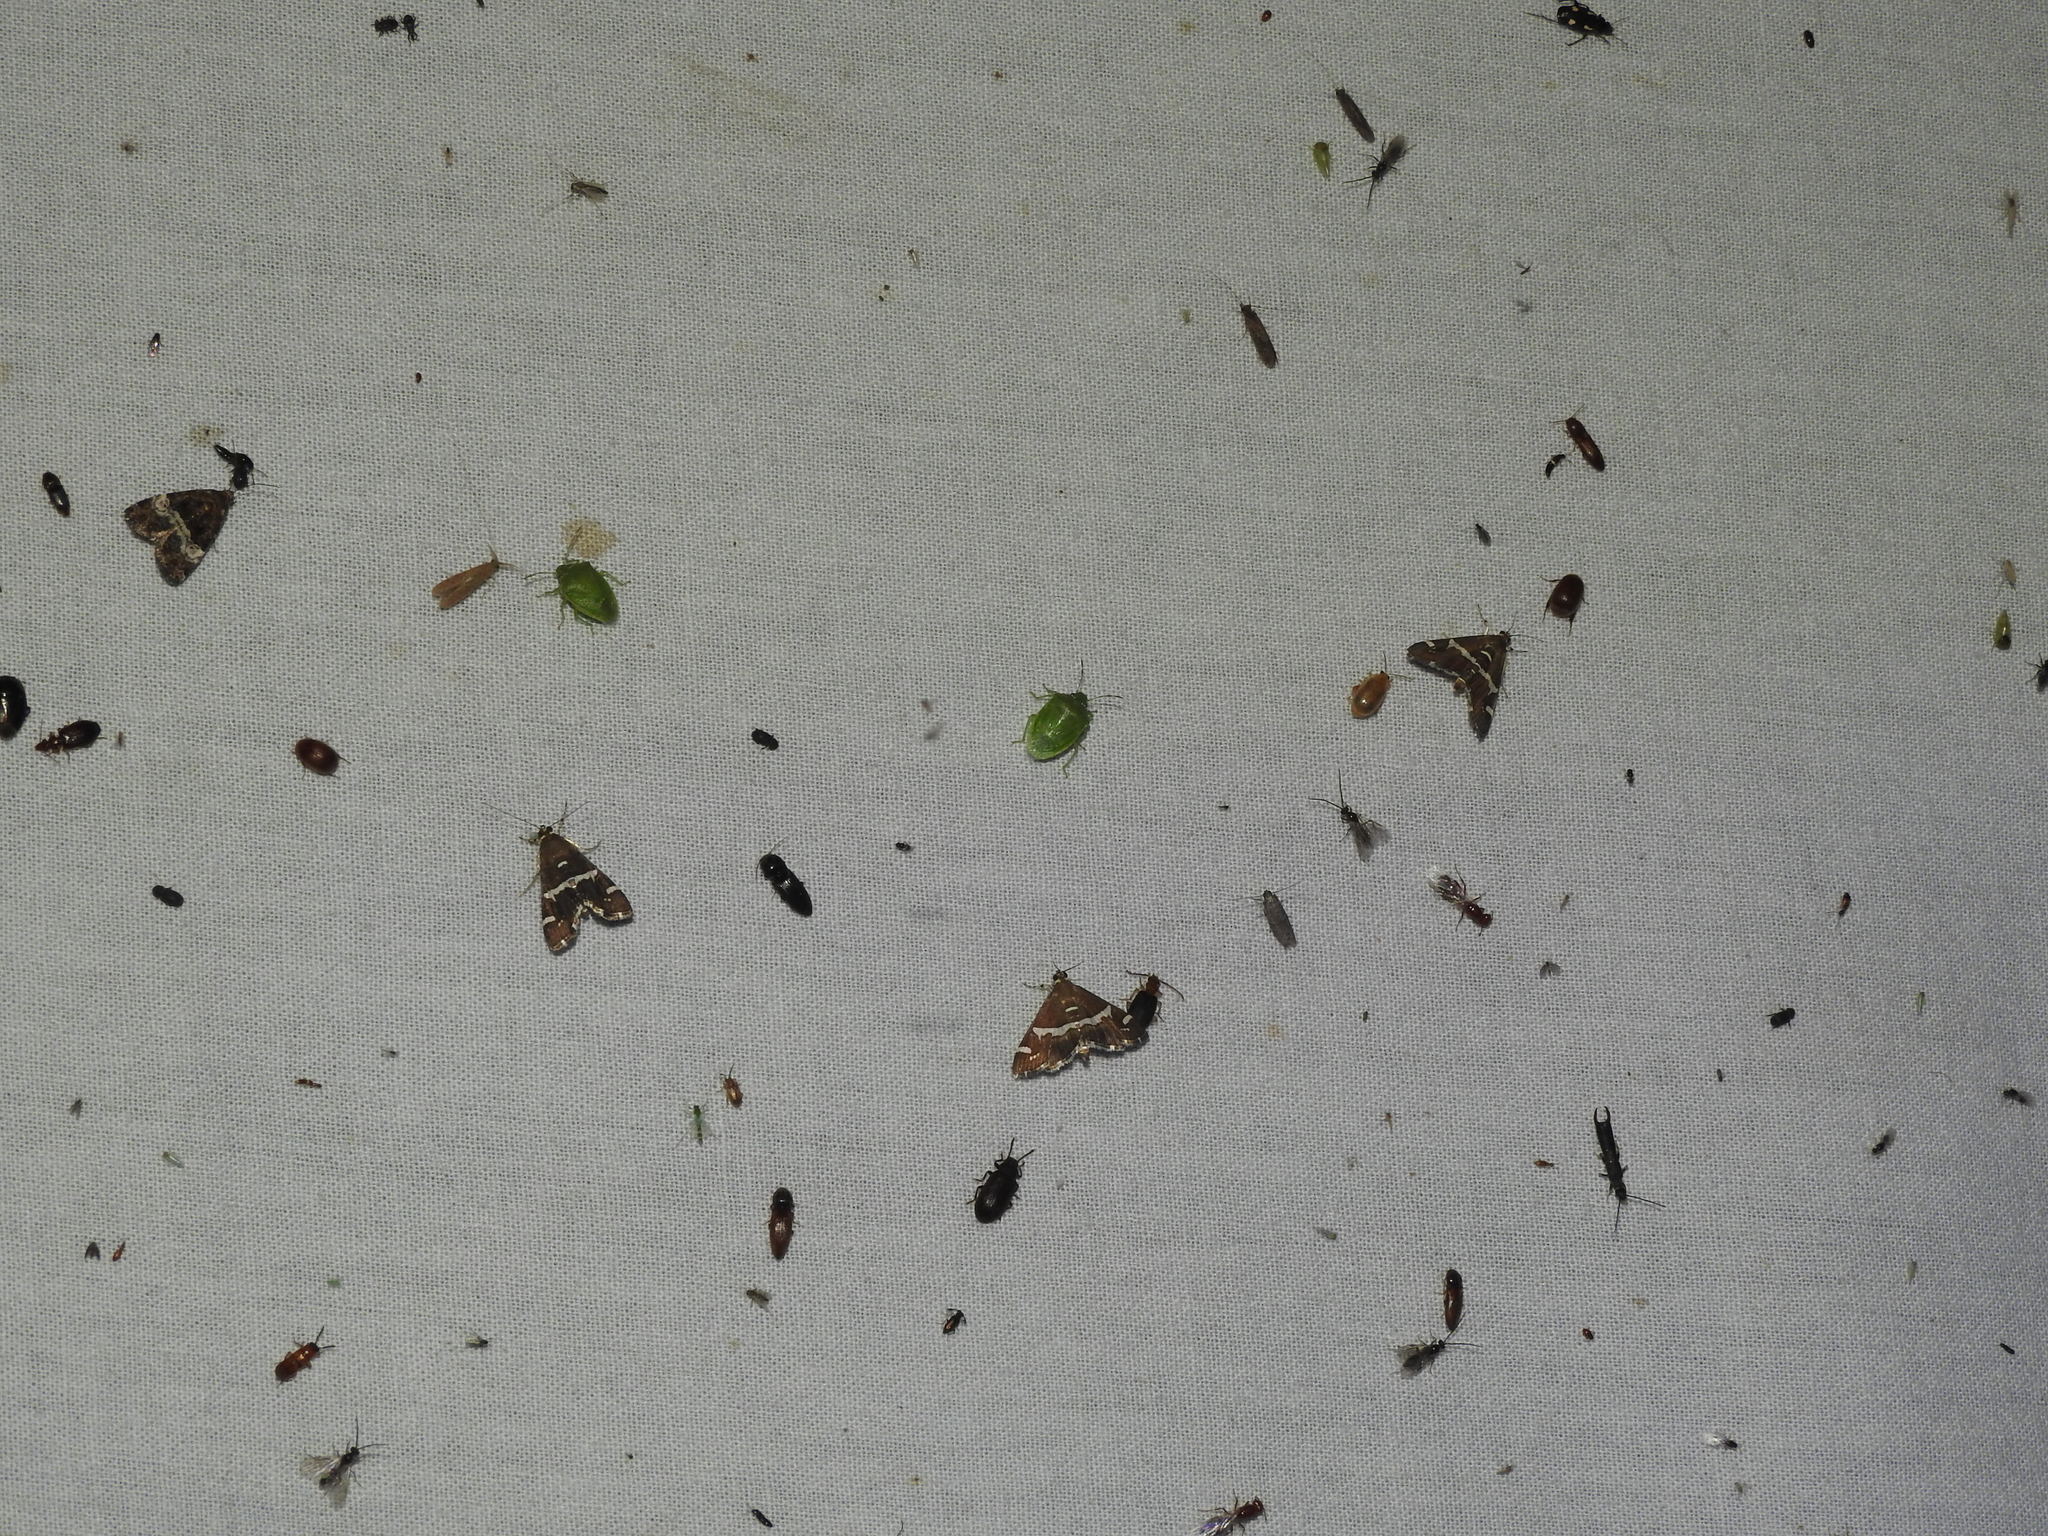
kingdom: Animalia
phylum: Arthropoda
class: Insecta
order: Lepidoptera
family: Crambidae
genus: Spoladea
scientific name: Spoladea recurvalis
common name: Beet webworm moth
